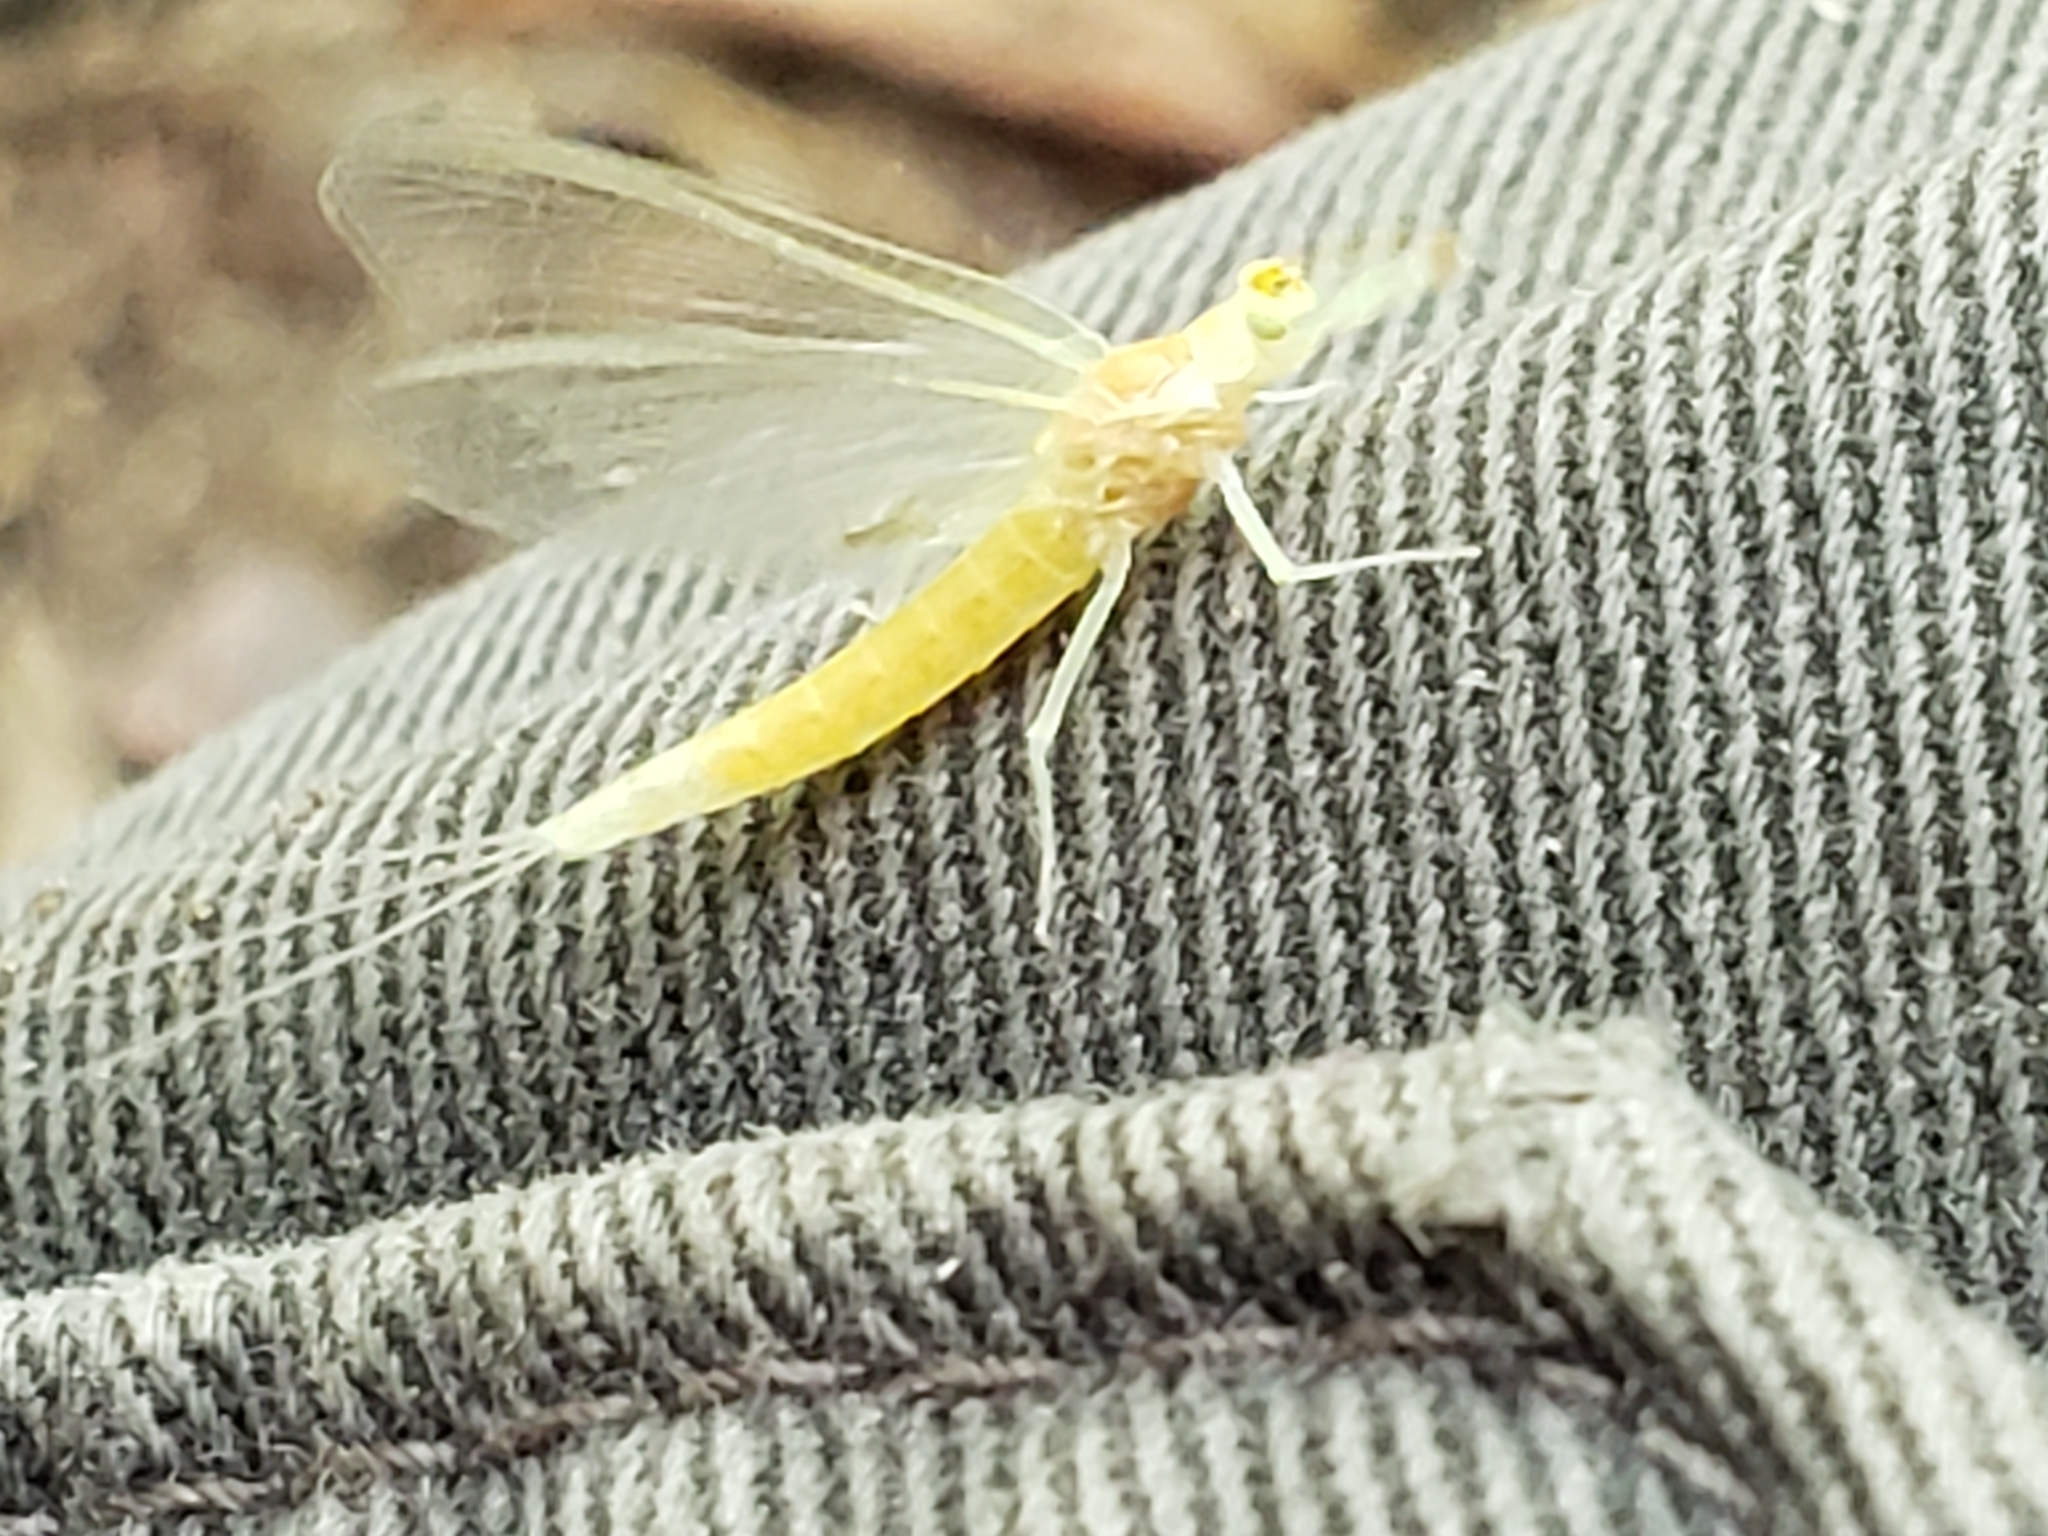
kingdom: Animalia
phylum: Arthropoda
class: Insecta
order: Ephemeroptera
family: Potamanthidae
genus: Anthopotamus
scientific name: Anthopotamus neglectus
